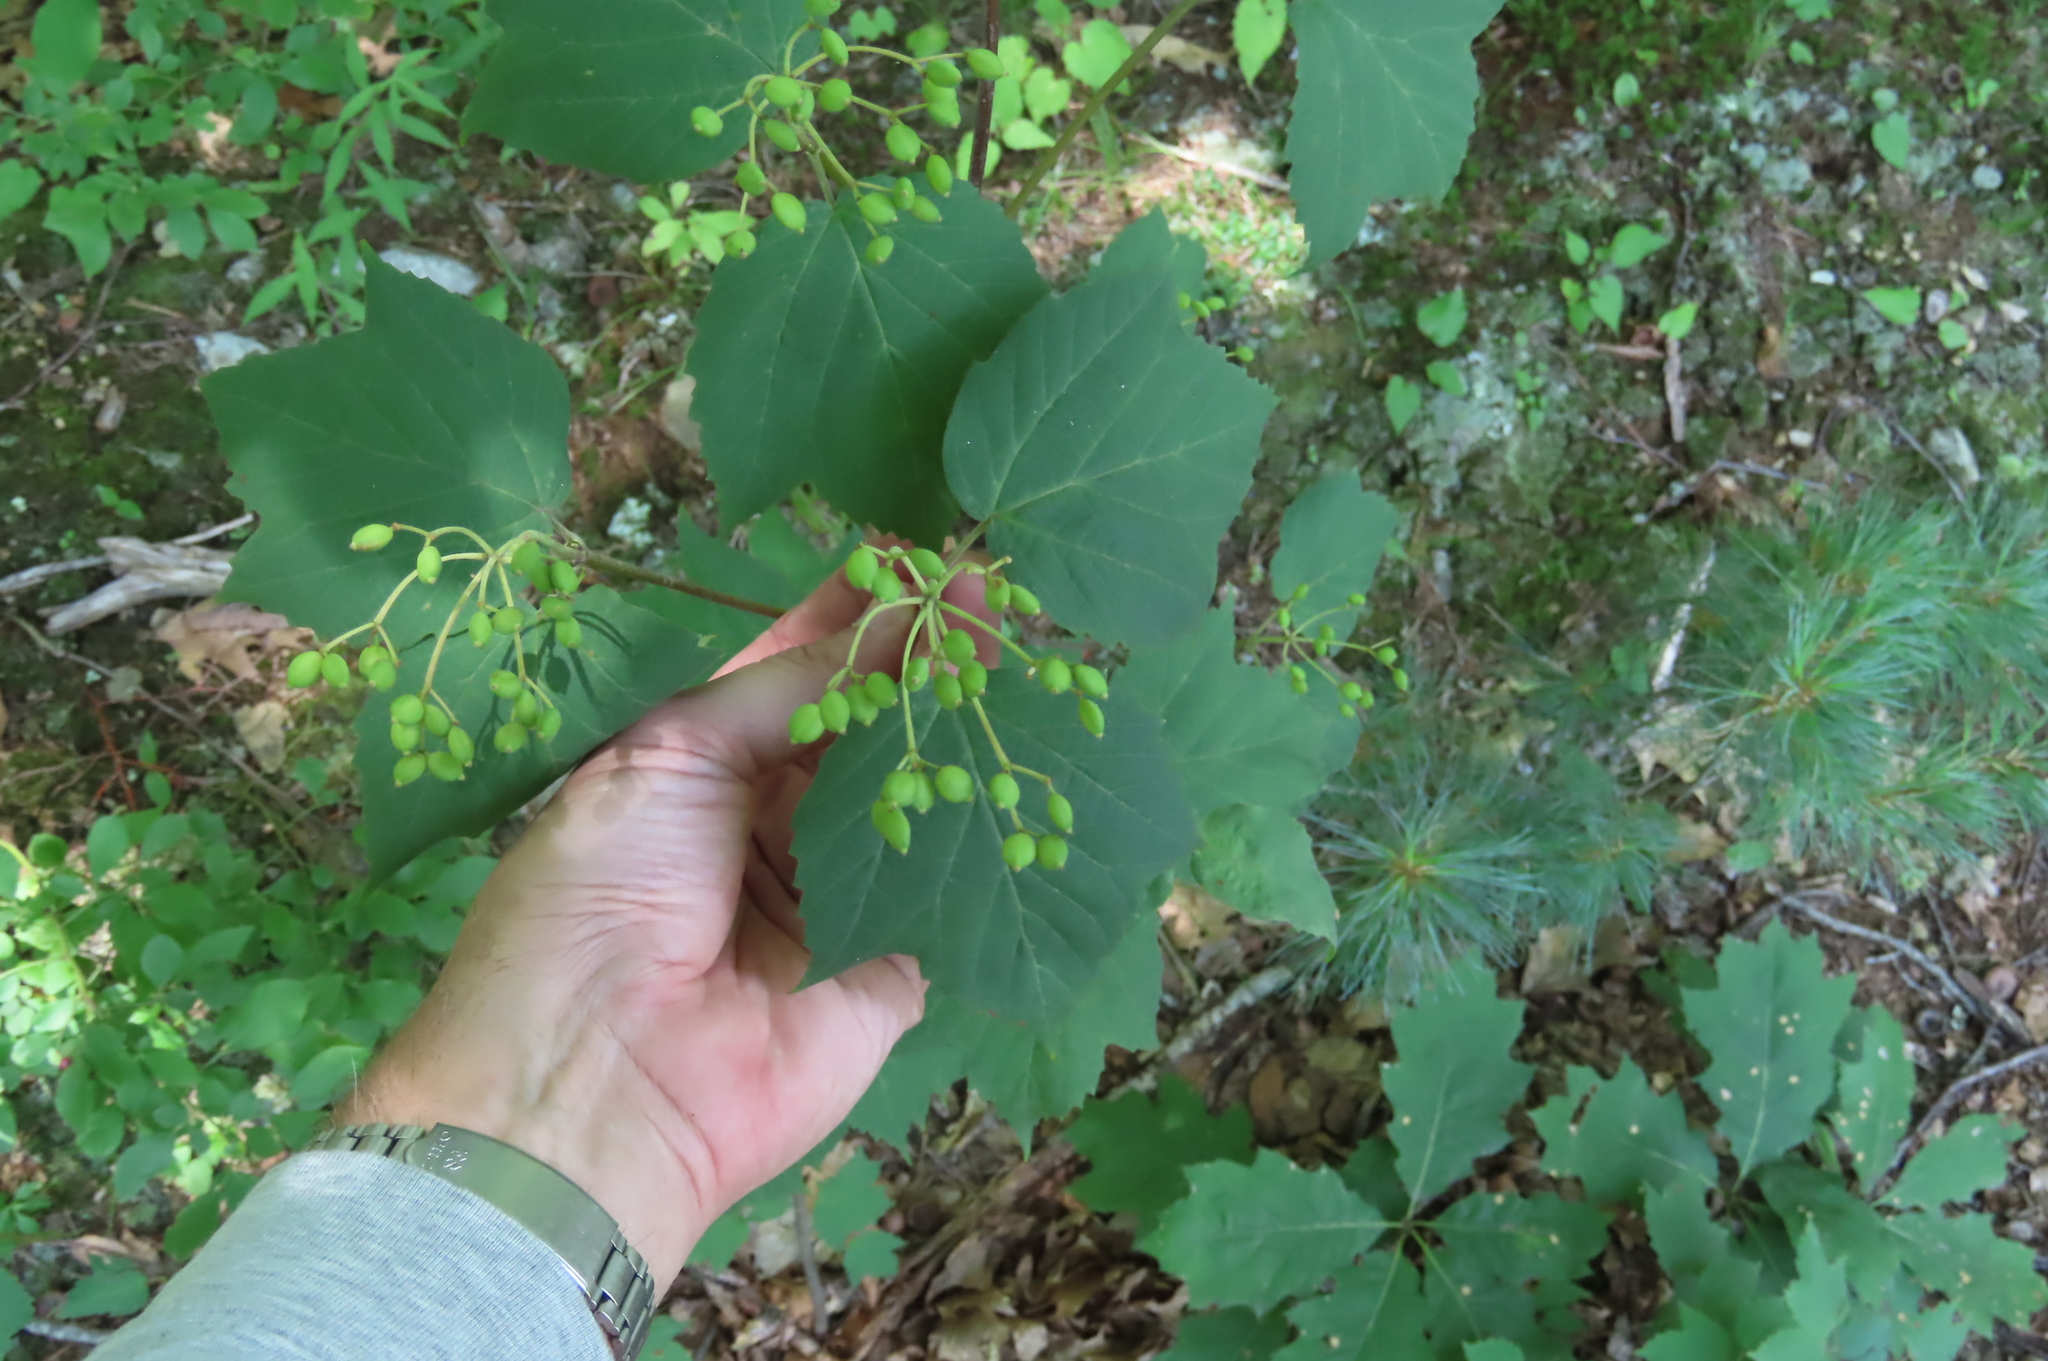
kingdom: Plantae
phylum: Tracheophyta
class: Magnoliopsida
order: Dipsacales
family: Viburnaceae
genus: Viburnum
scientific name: Viburnum acerifolium
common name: Dockmackie
